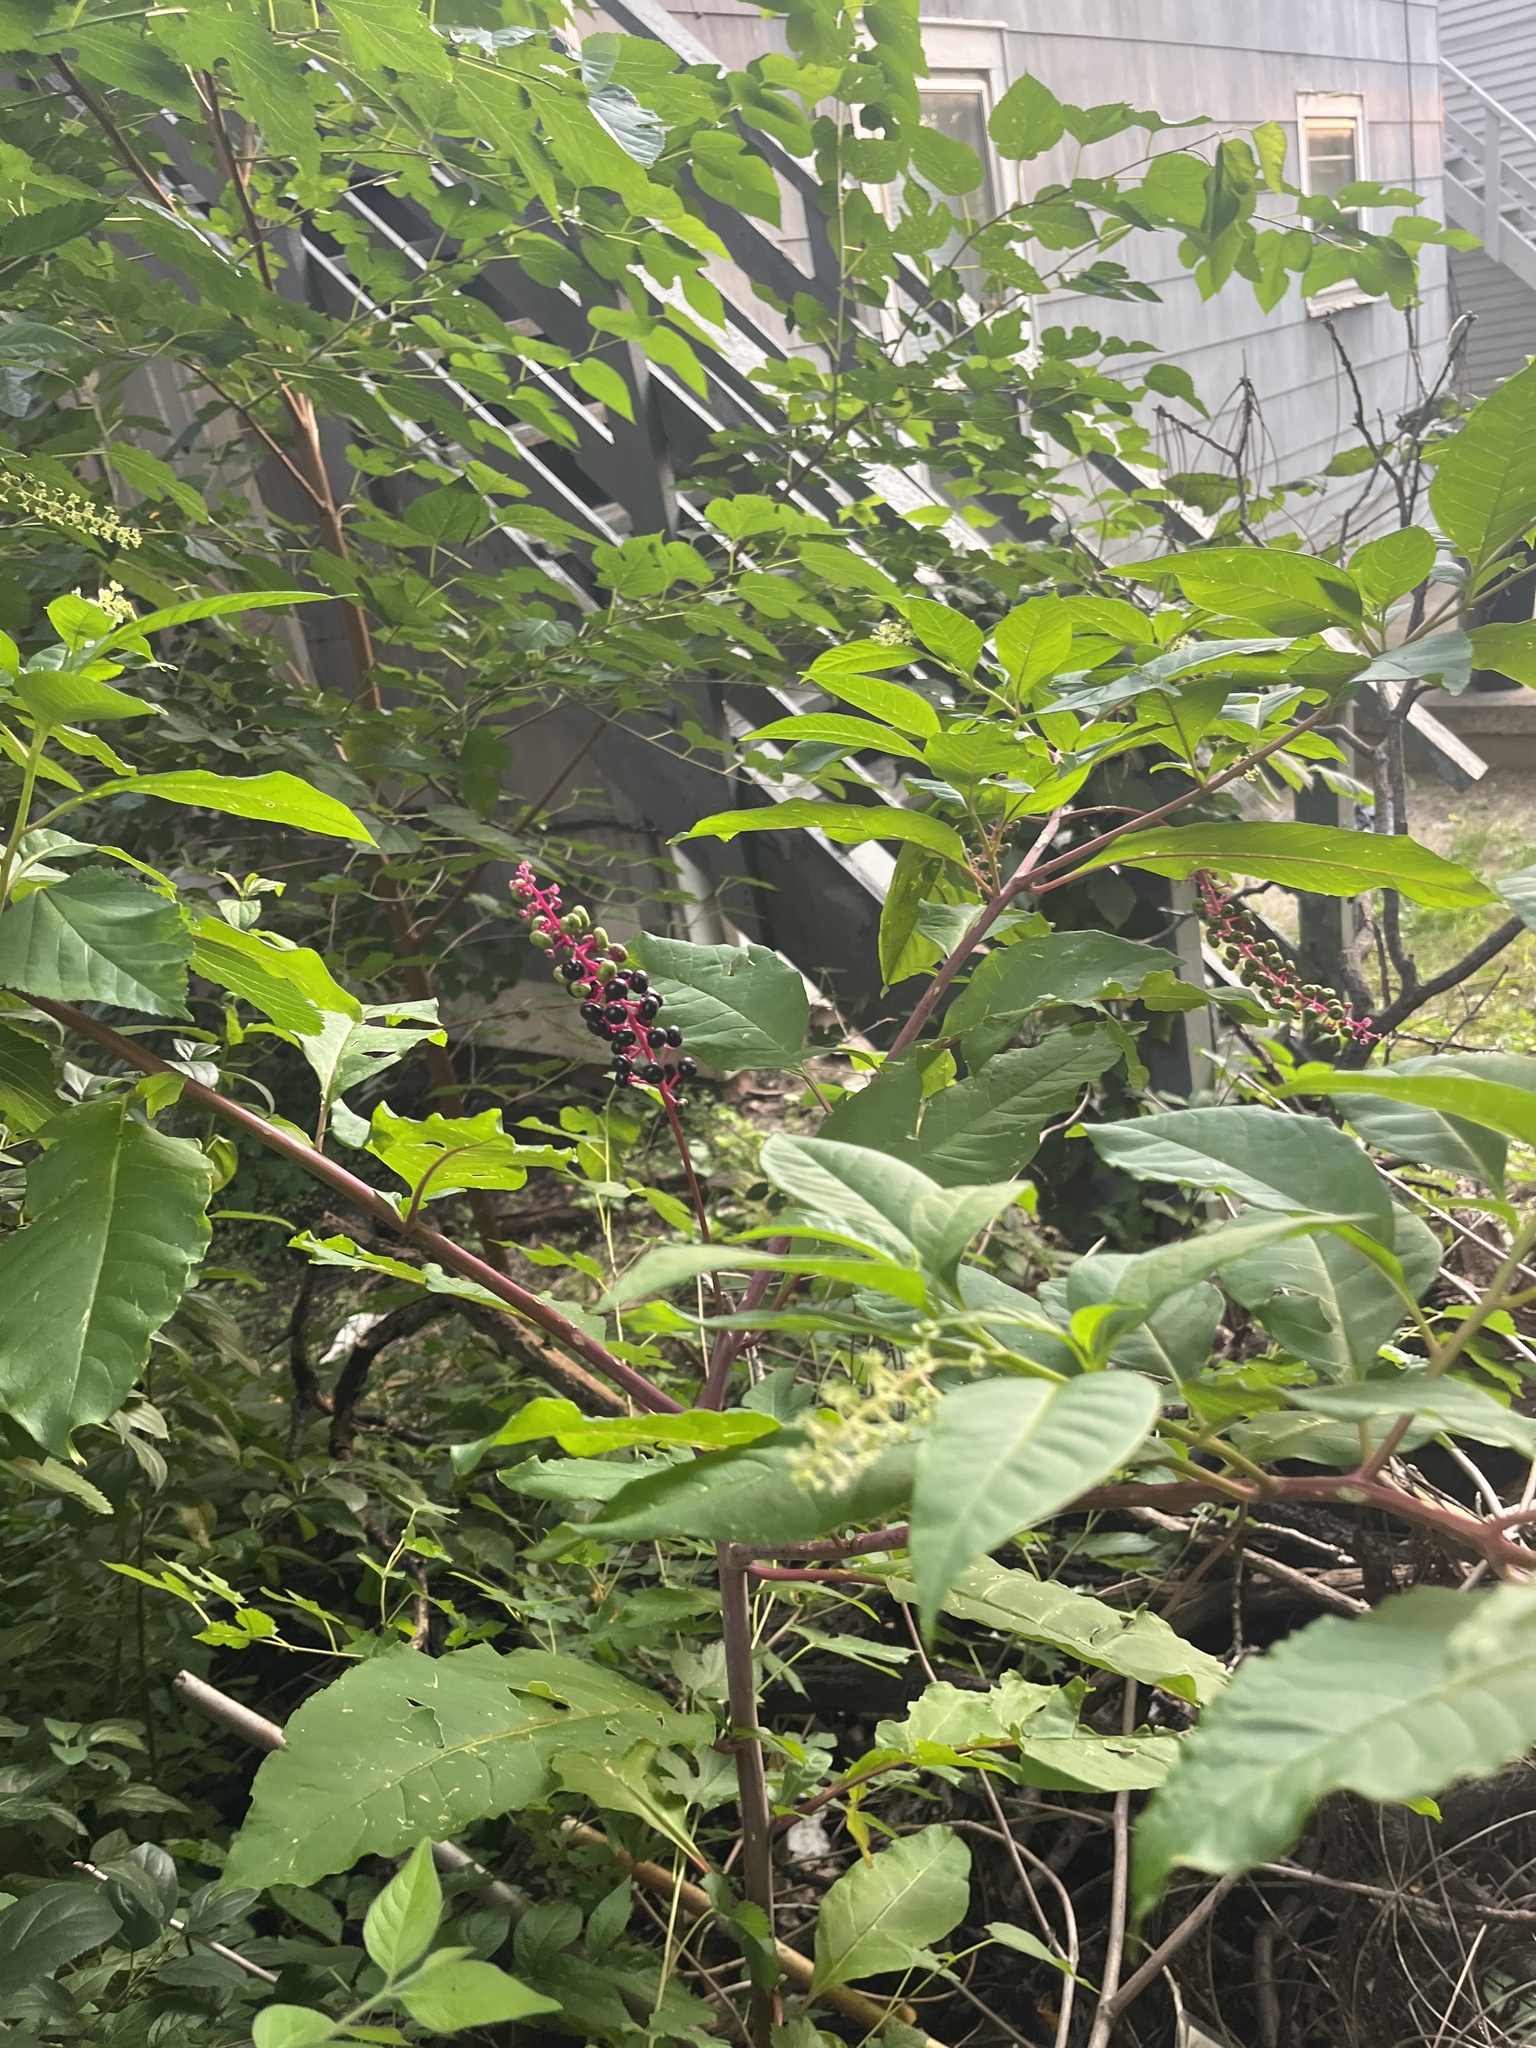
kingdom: Plantae
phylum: Tracheophyta
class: Magnoliopsida
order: Caryophyllales
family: Phytolaccaceae
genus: Phytolacca
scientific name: Phytolacca americana
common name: American pokeweed
